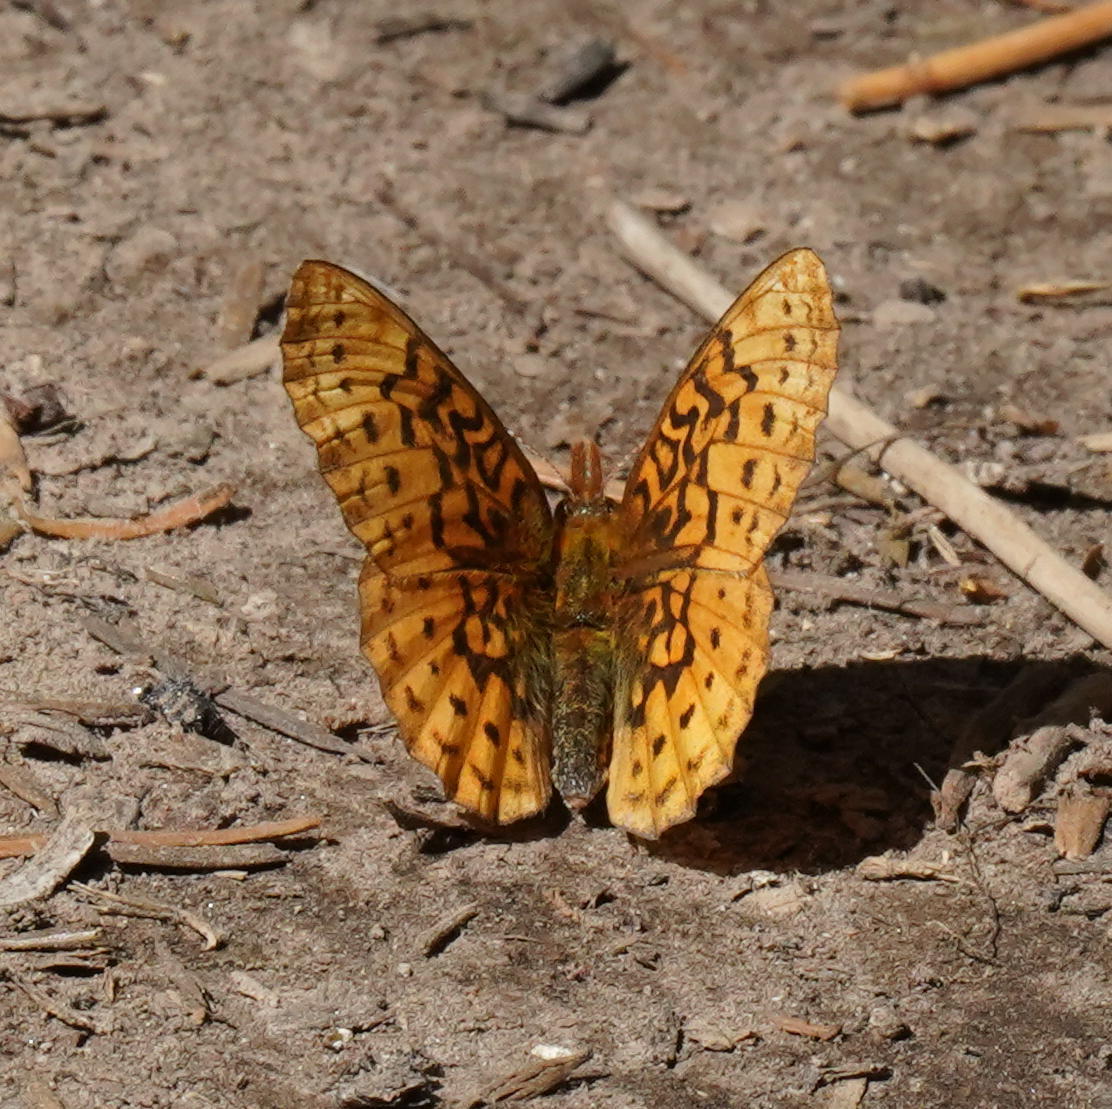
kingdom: Animalia
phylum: Arthropoda
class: Insecta
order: Lepidoptera
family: Nymphalidae
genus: Boloria
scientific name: Boloria epithore
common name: Pacific fritillary
